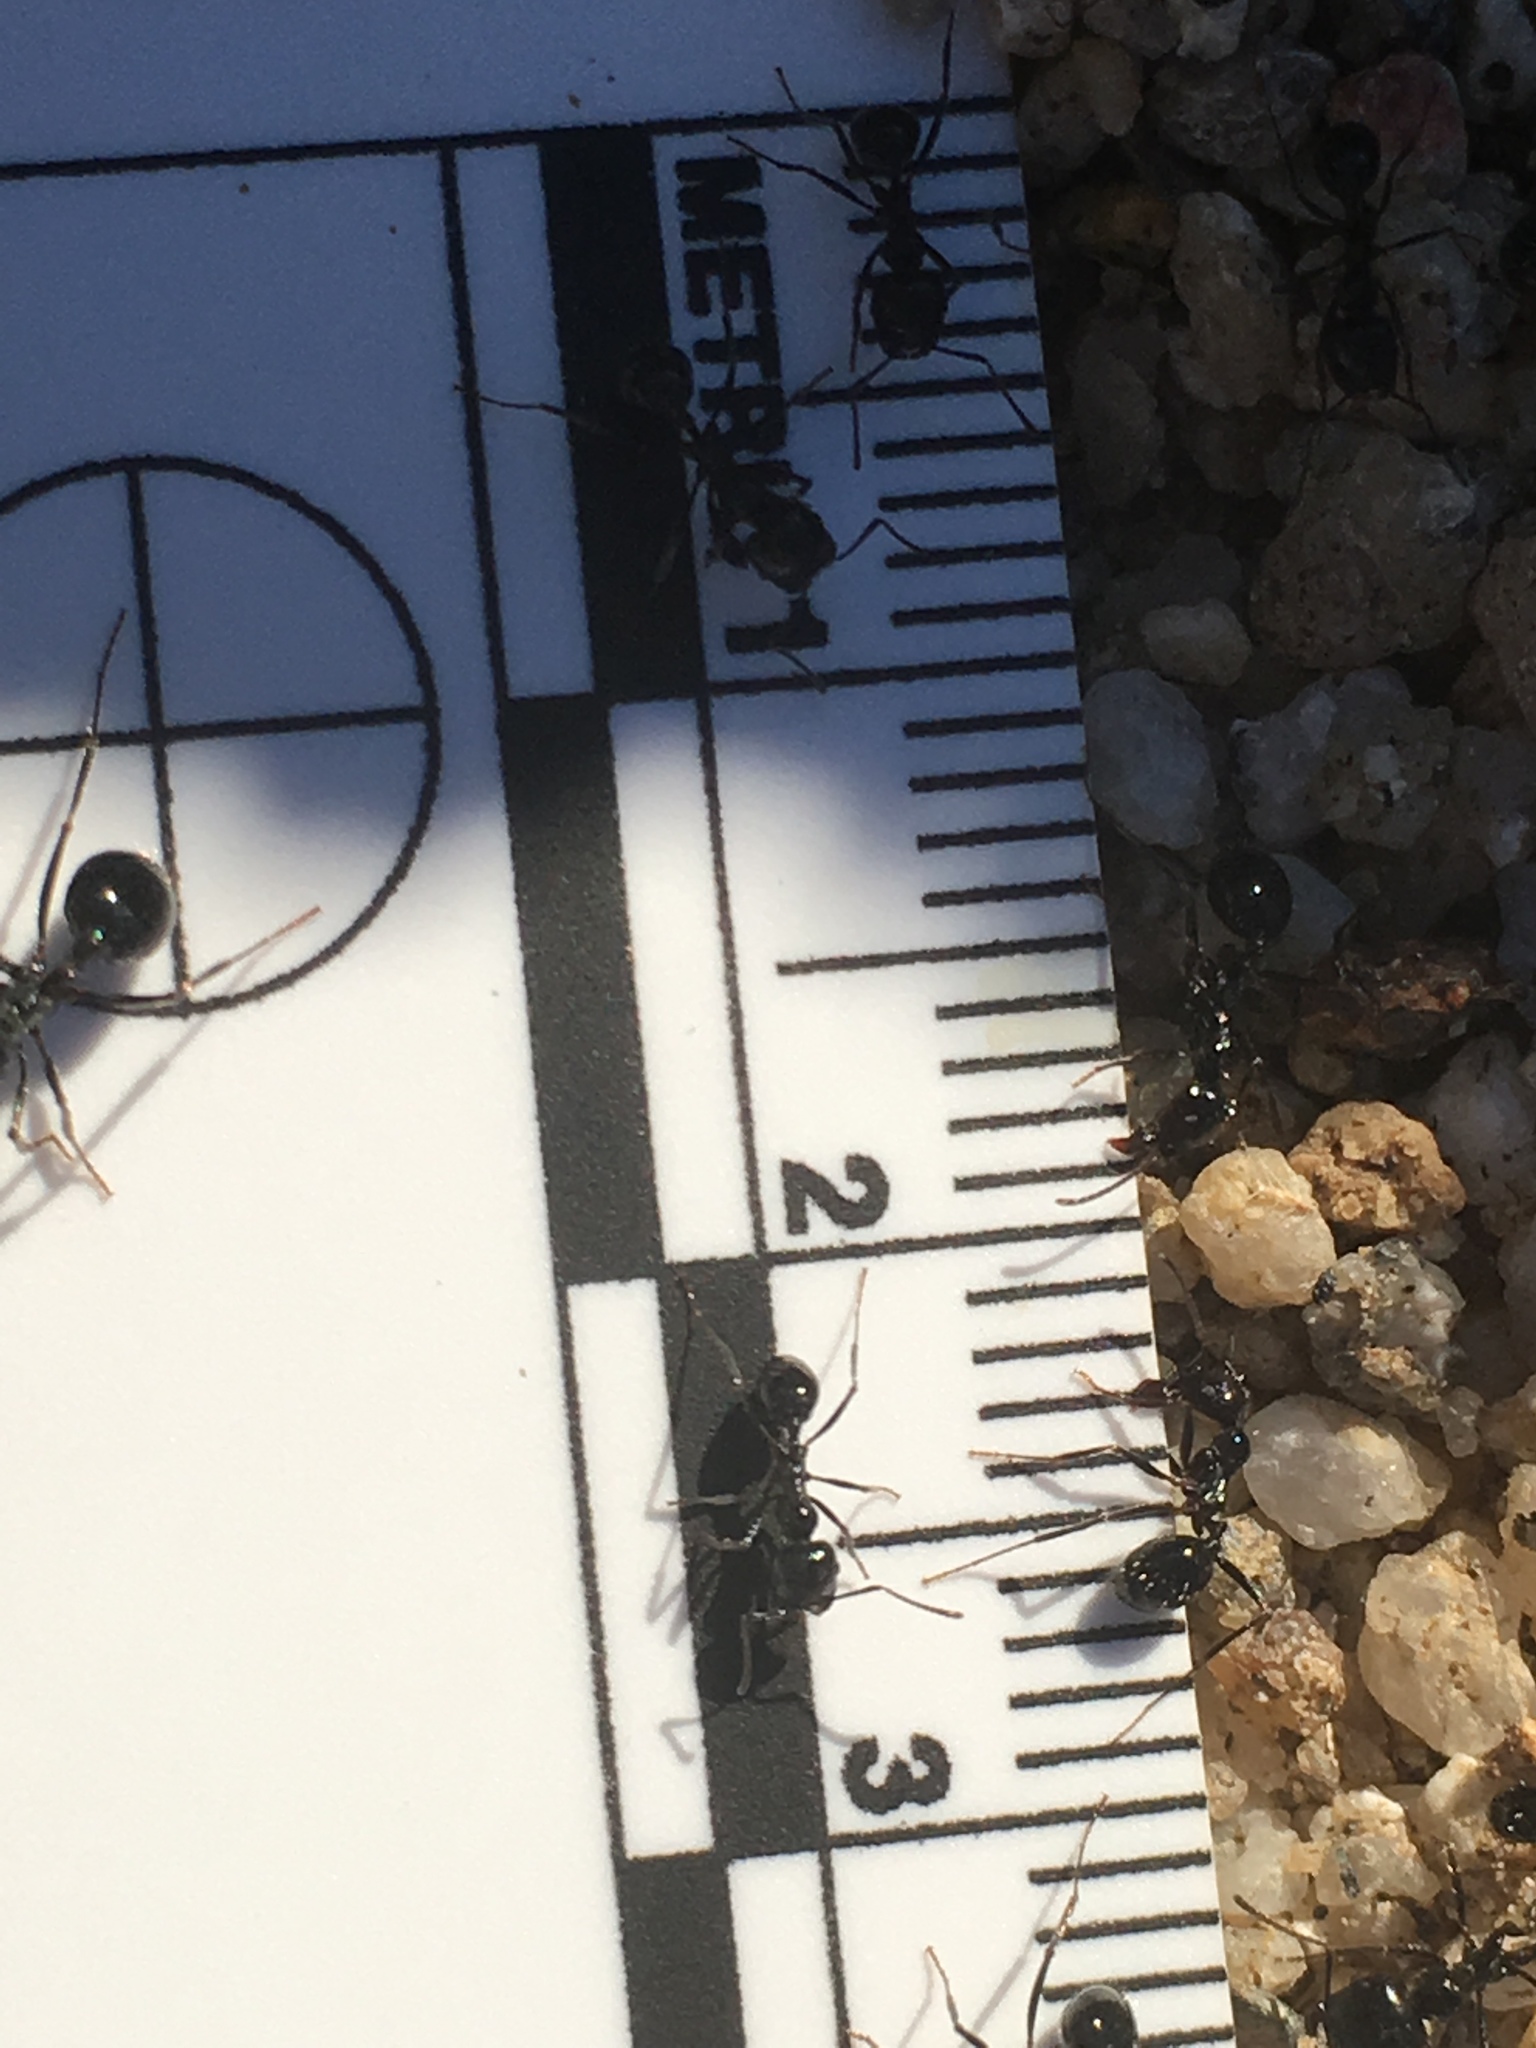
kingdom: Animalia
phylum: Arthropoda
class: Insecta
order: Hymenoptera
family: Formicidae
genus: Messor
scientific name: Messor pergandei
